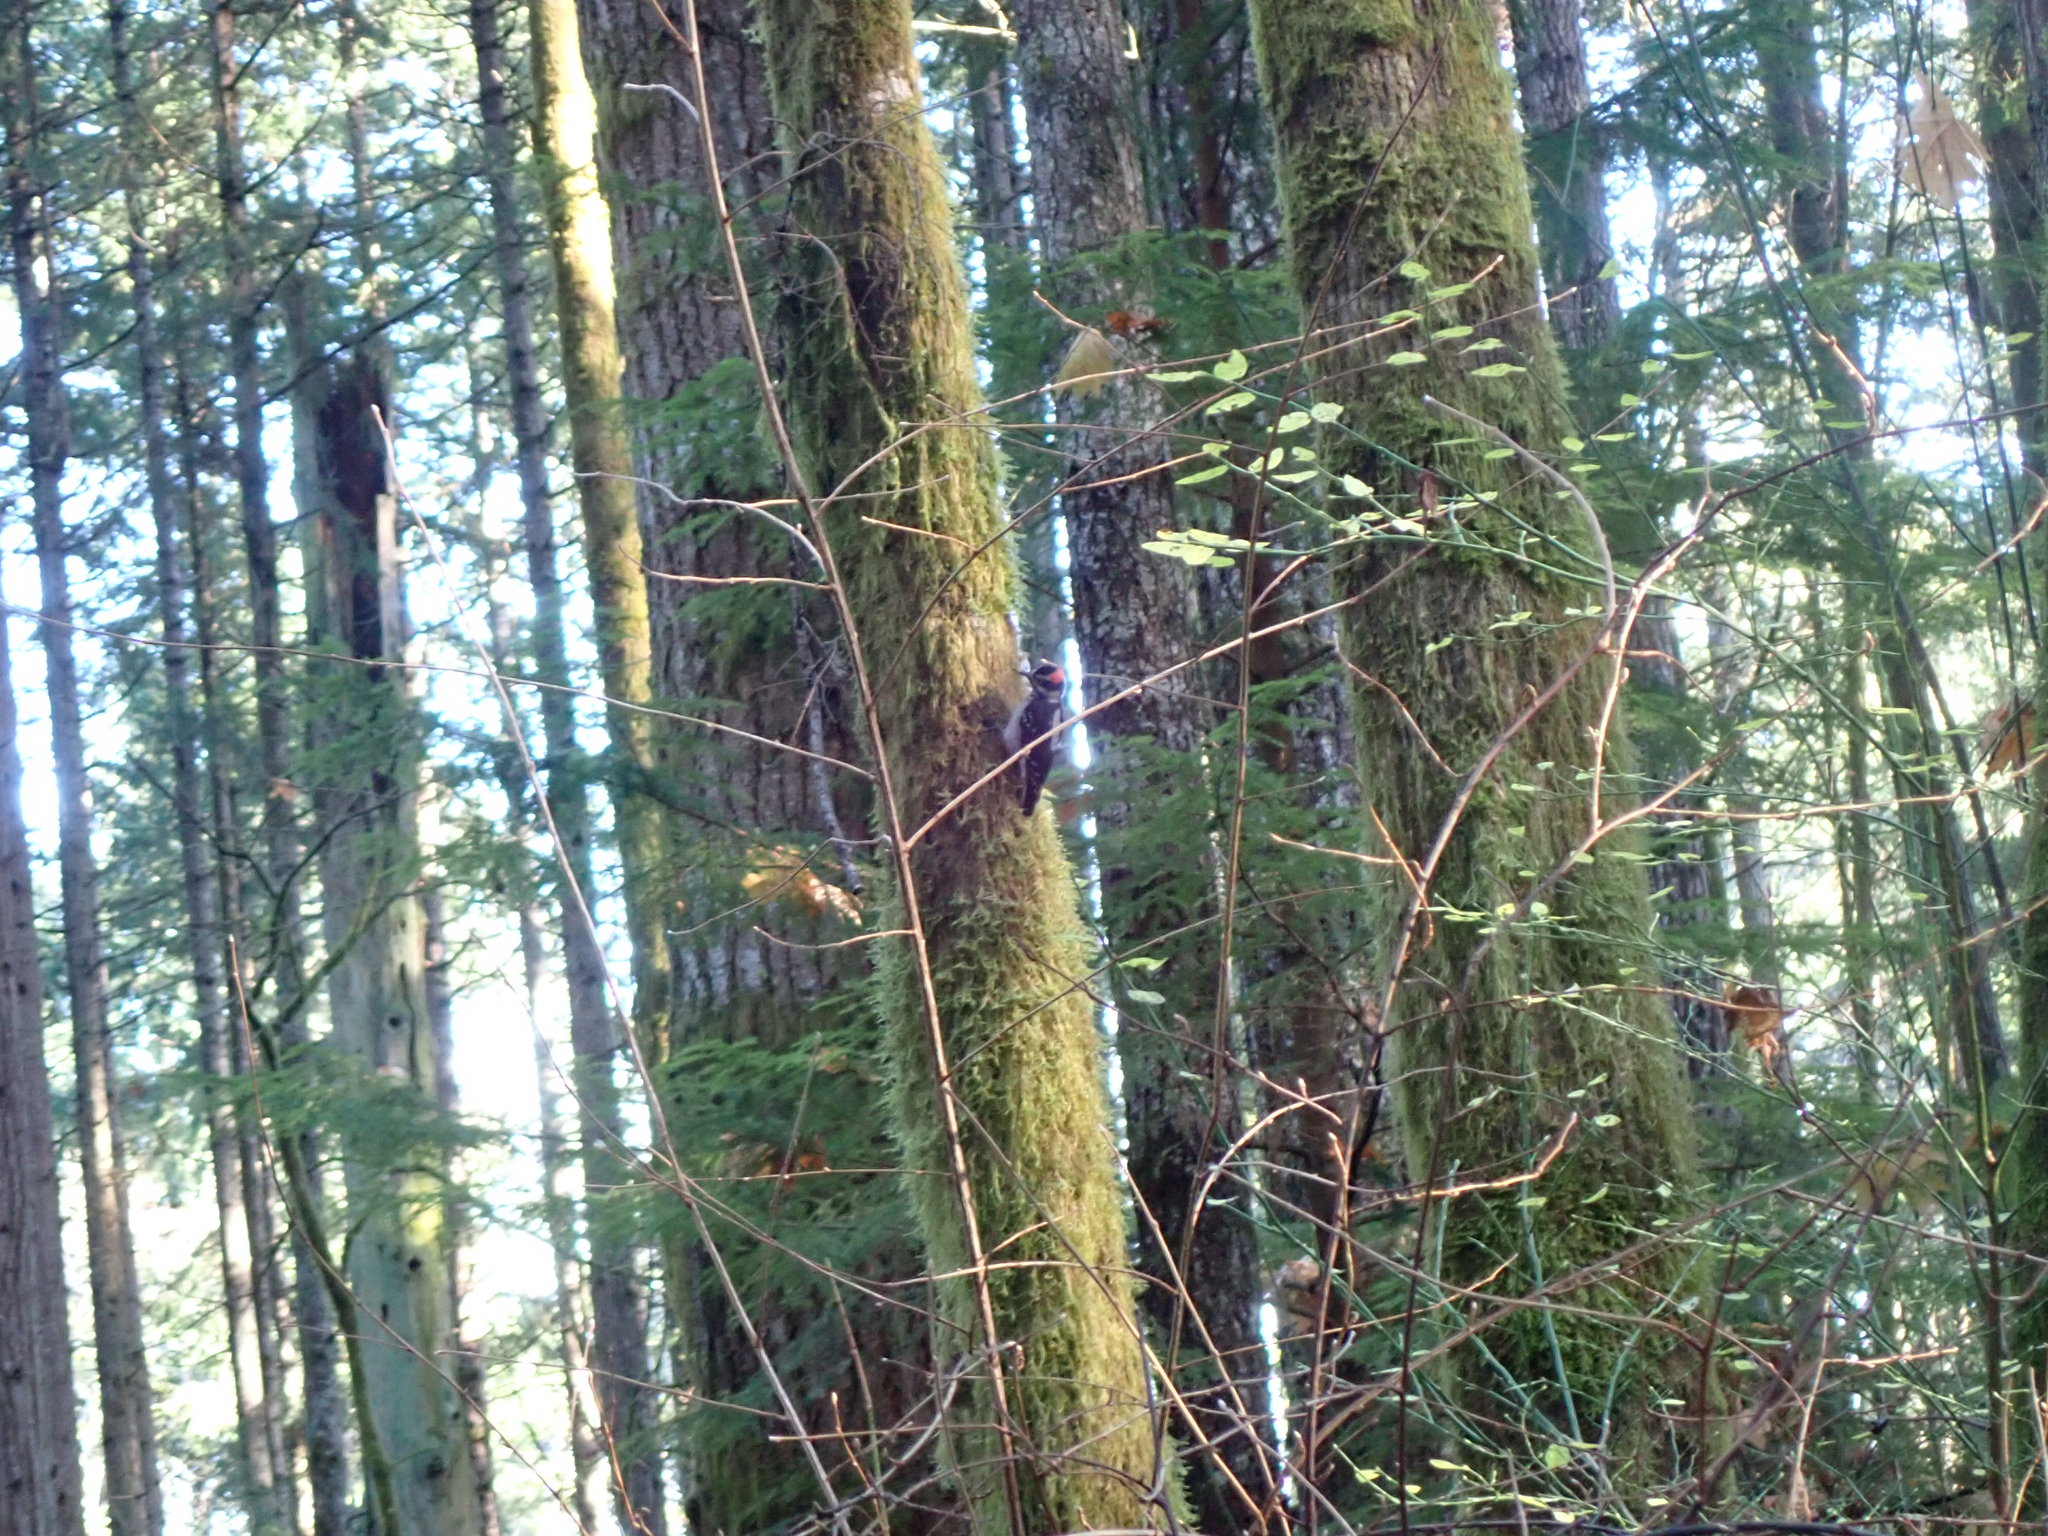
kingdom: Animalia
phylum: Chordata
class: Aves
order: Piciformes
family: Picidae
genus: Leuconotopicus
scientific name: Leuconotopicus villosus
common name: Hairy woodpecker
